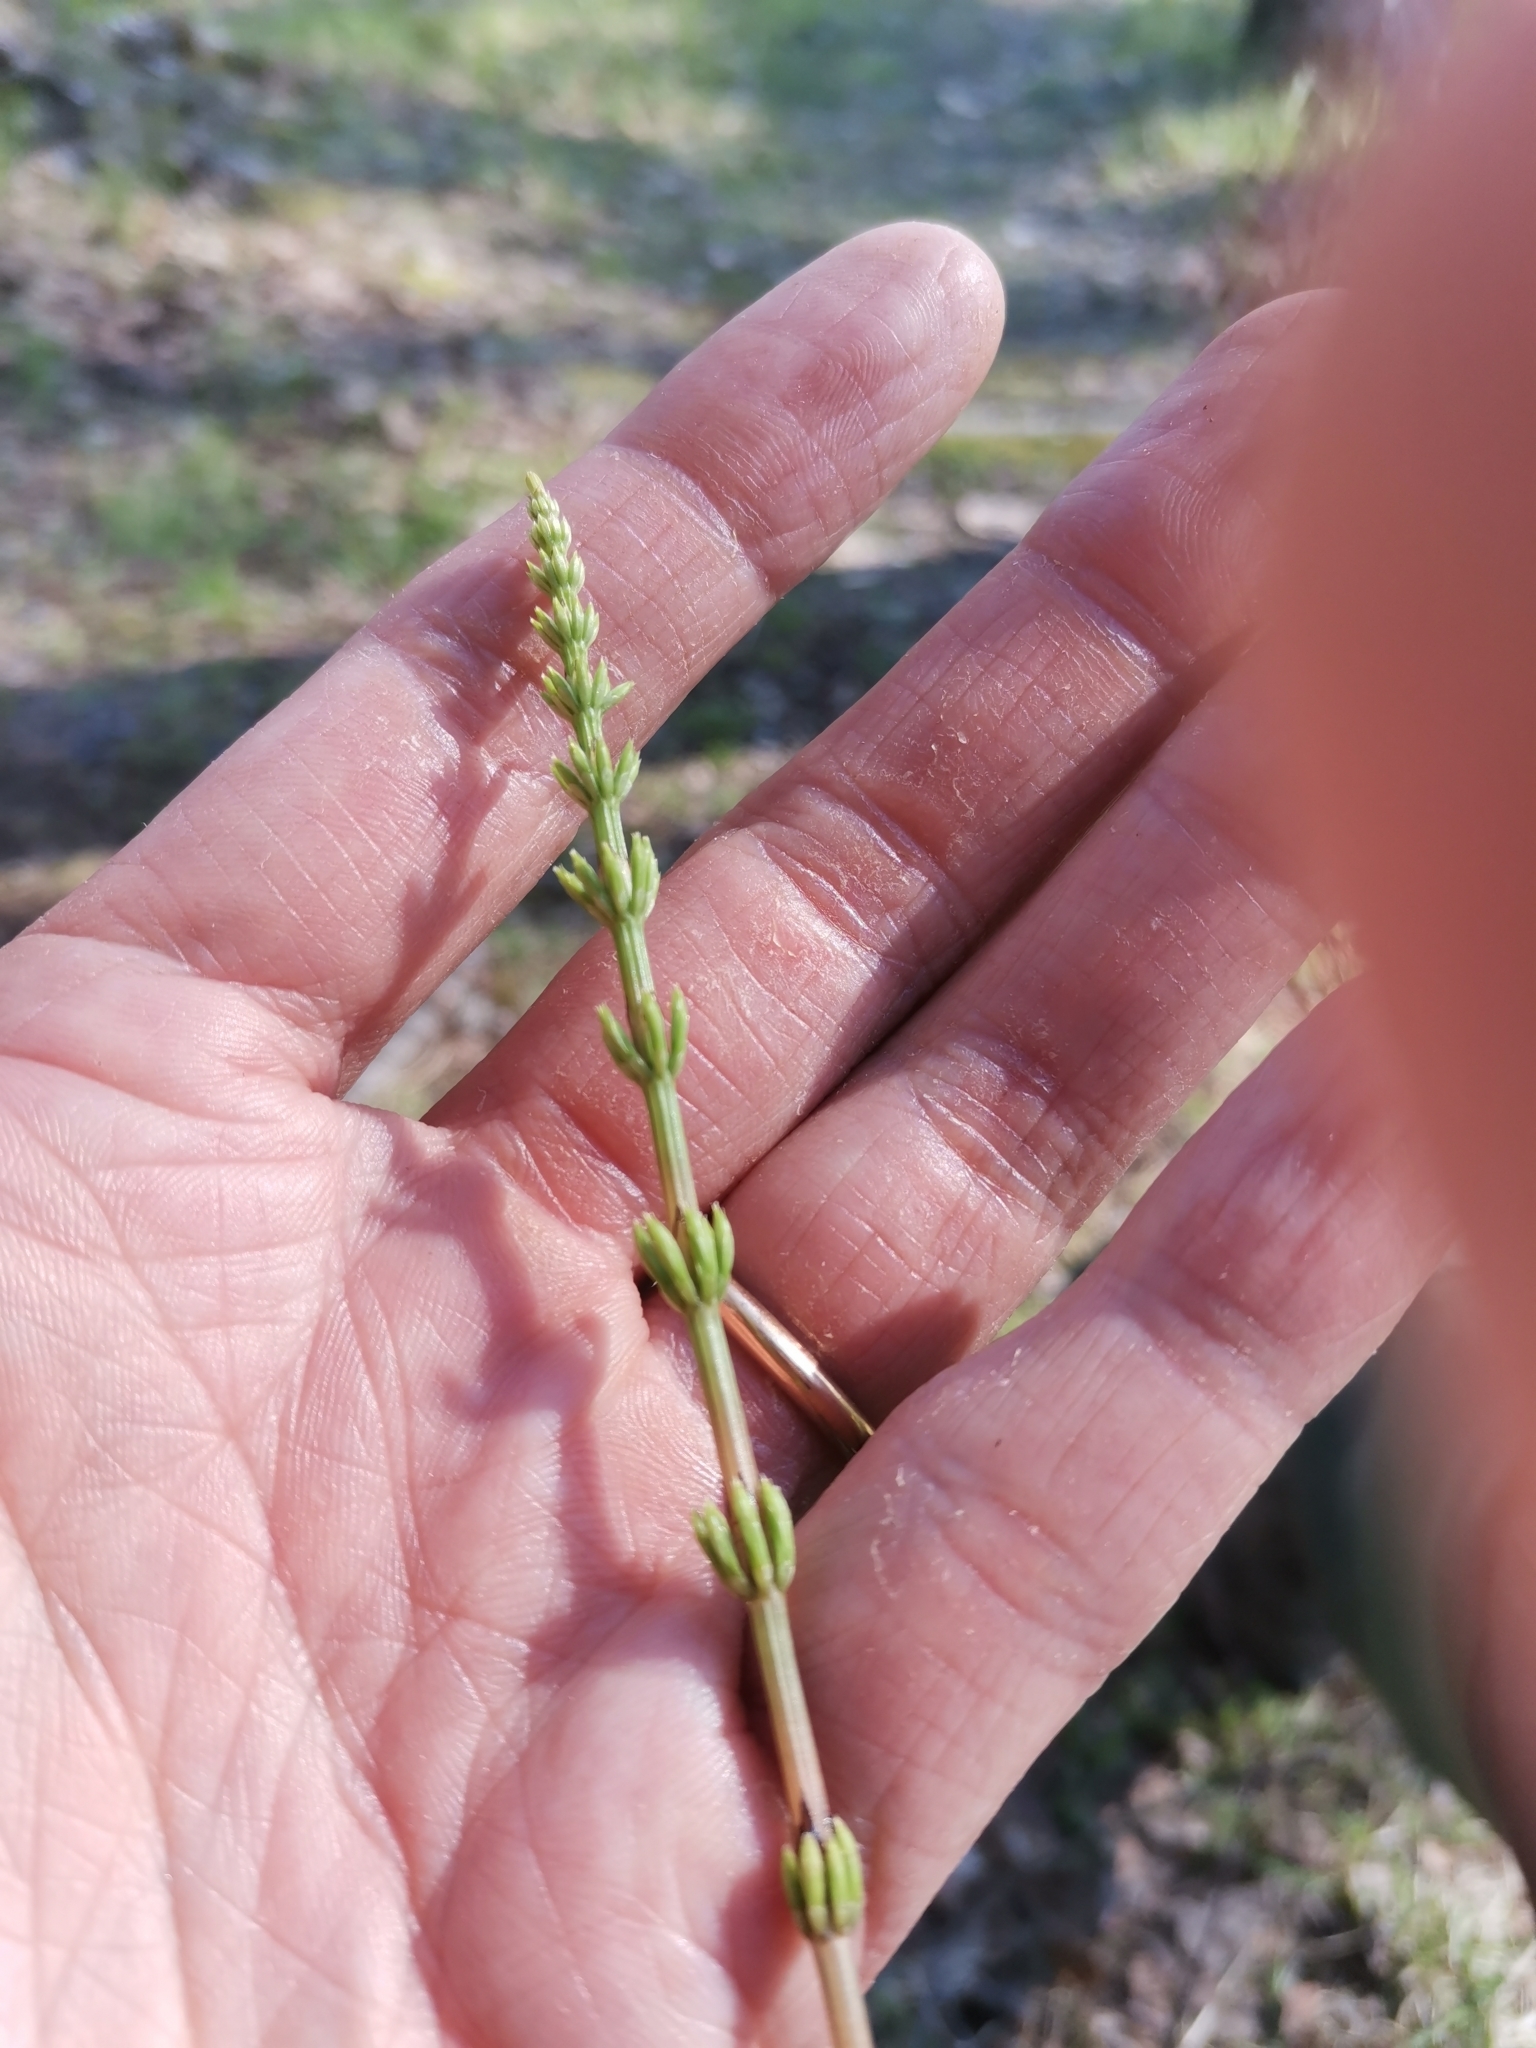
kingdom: Plantae
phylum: Tracheophyta
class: Polypodiopsida
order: Equisetales
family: Equisetaceae
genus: Equisetum
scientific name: Equisetum arvense
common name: Field horsetail
